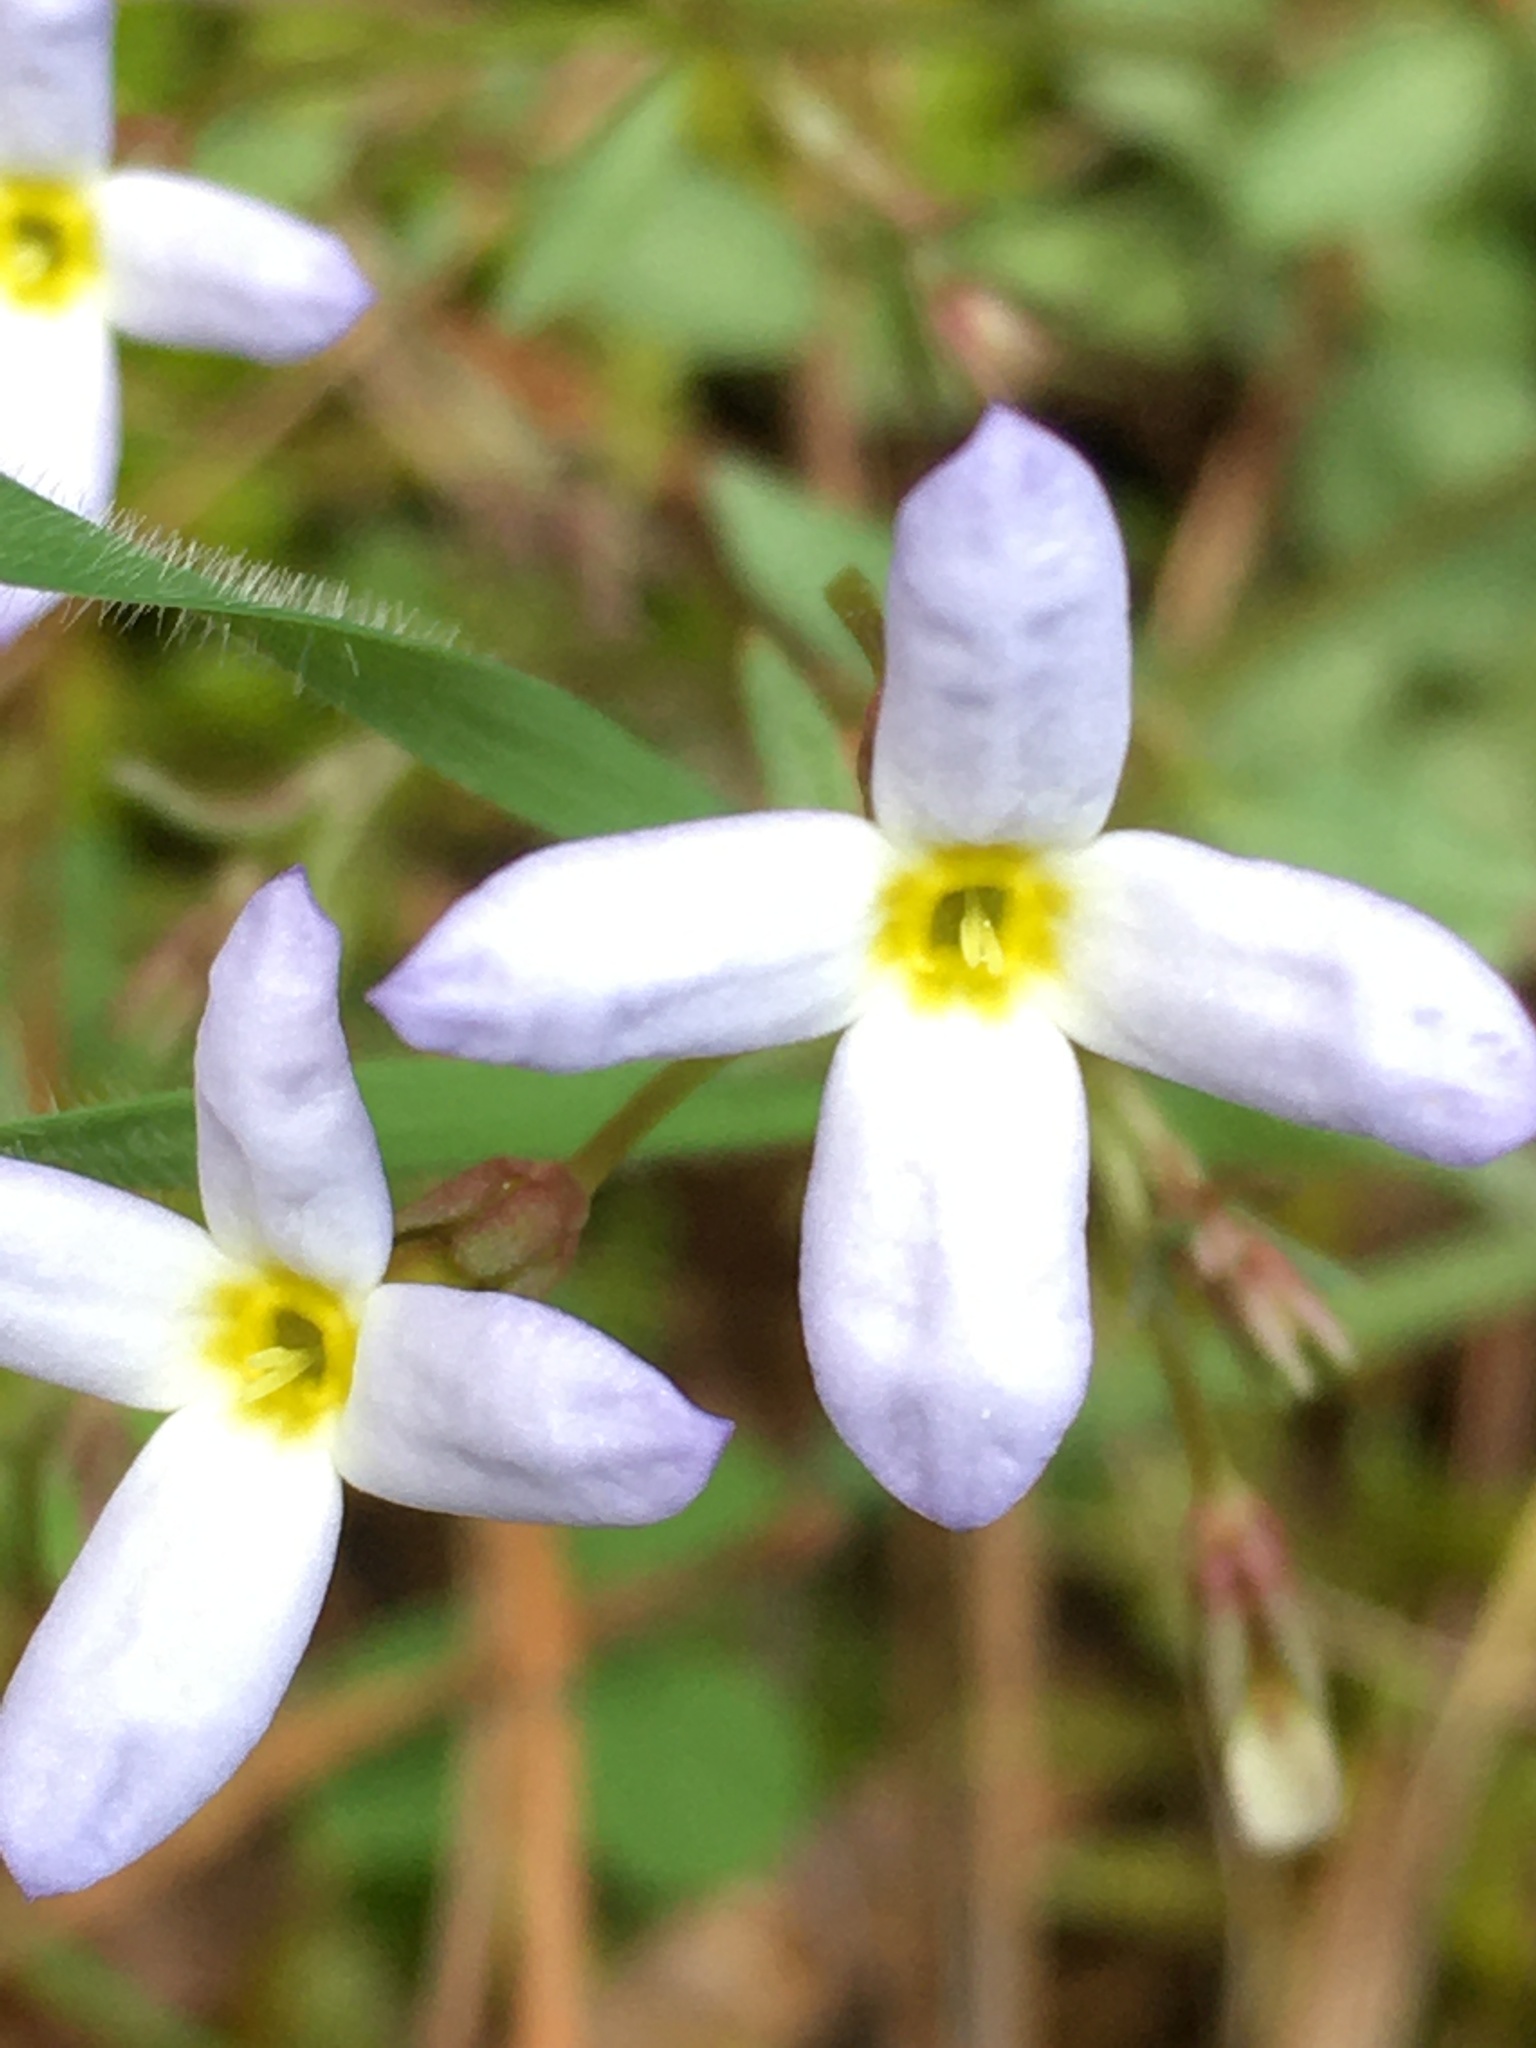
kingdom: Plantae
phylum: Tracheophyta
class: Magnoliopsida
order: Gentianales
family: Rubiaceae
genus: Houstonia
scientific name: Houstonia caerulea
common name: Bluets
